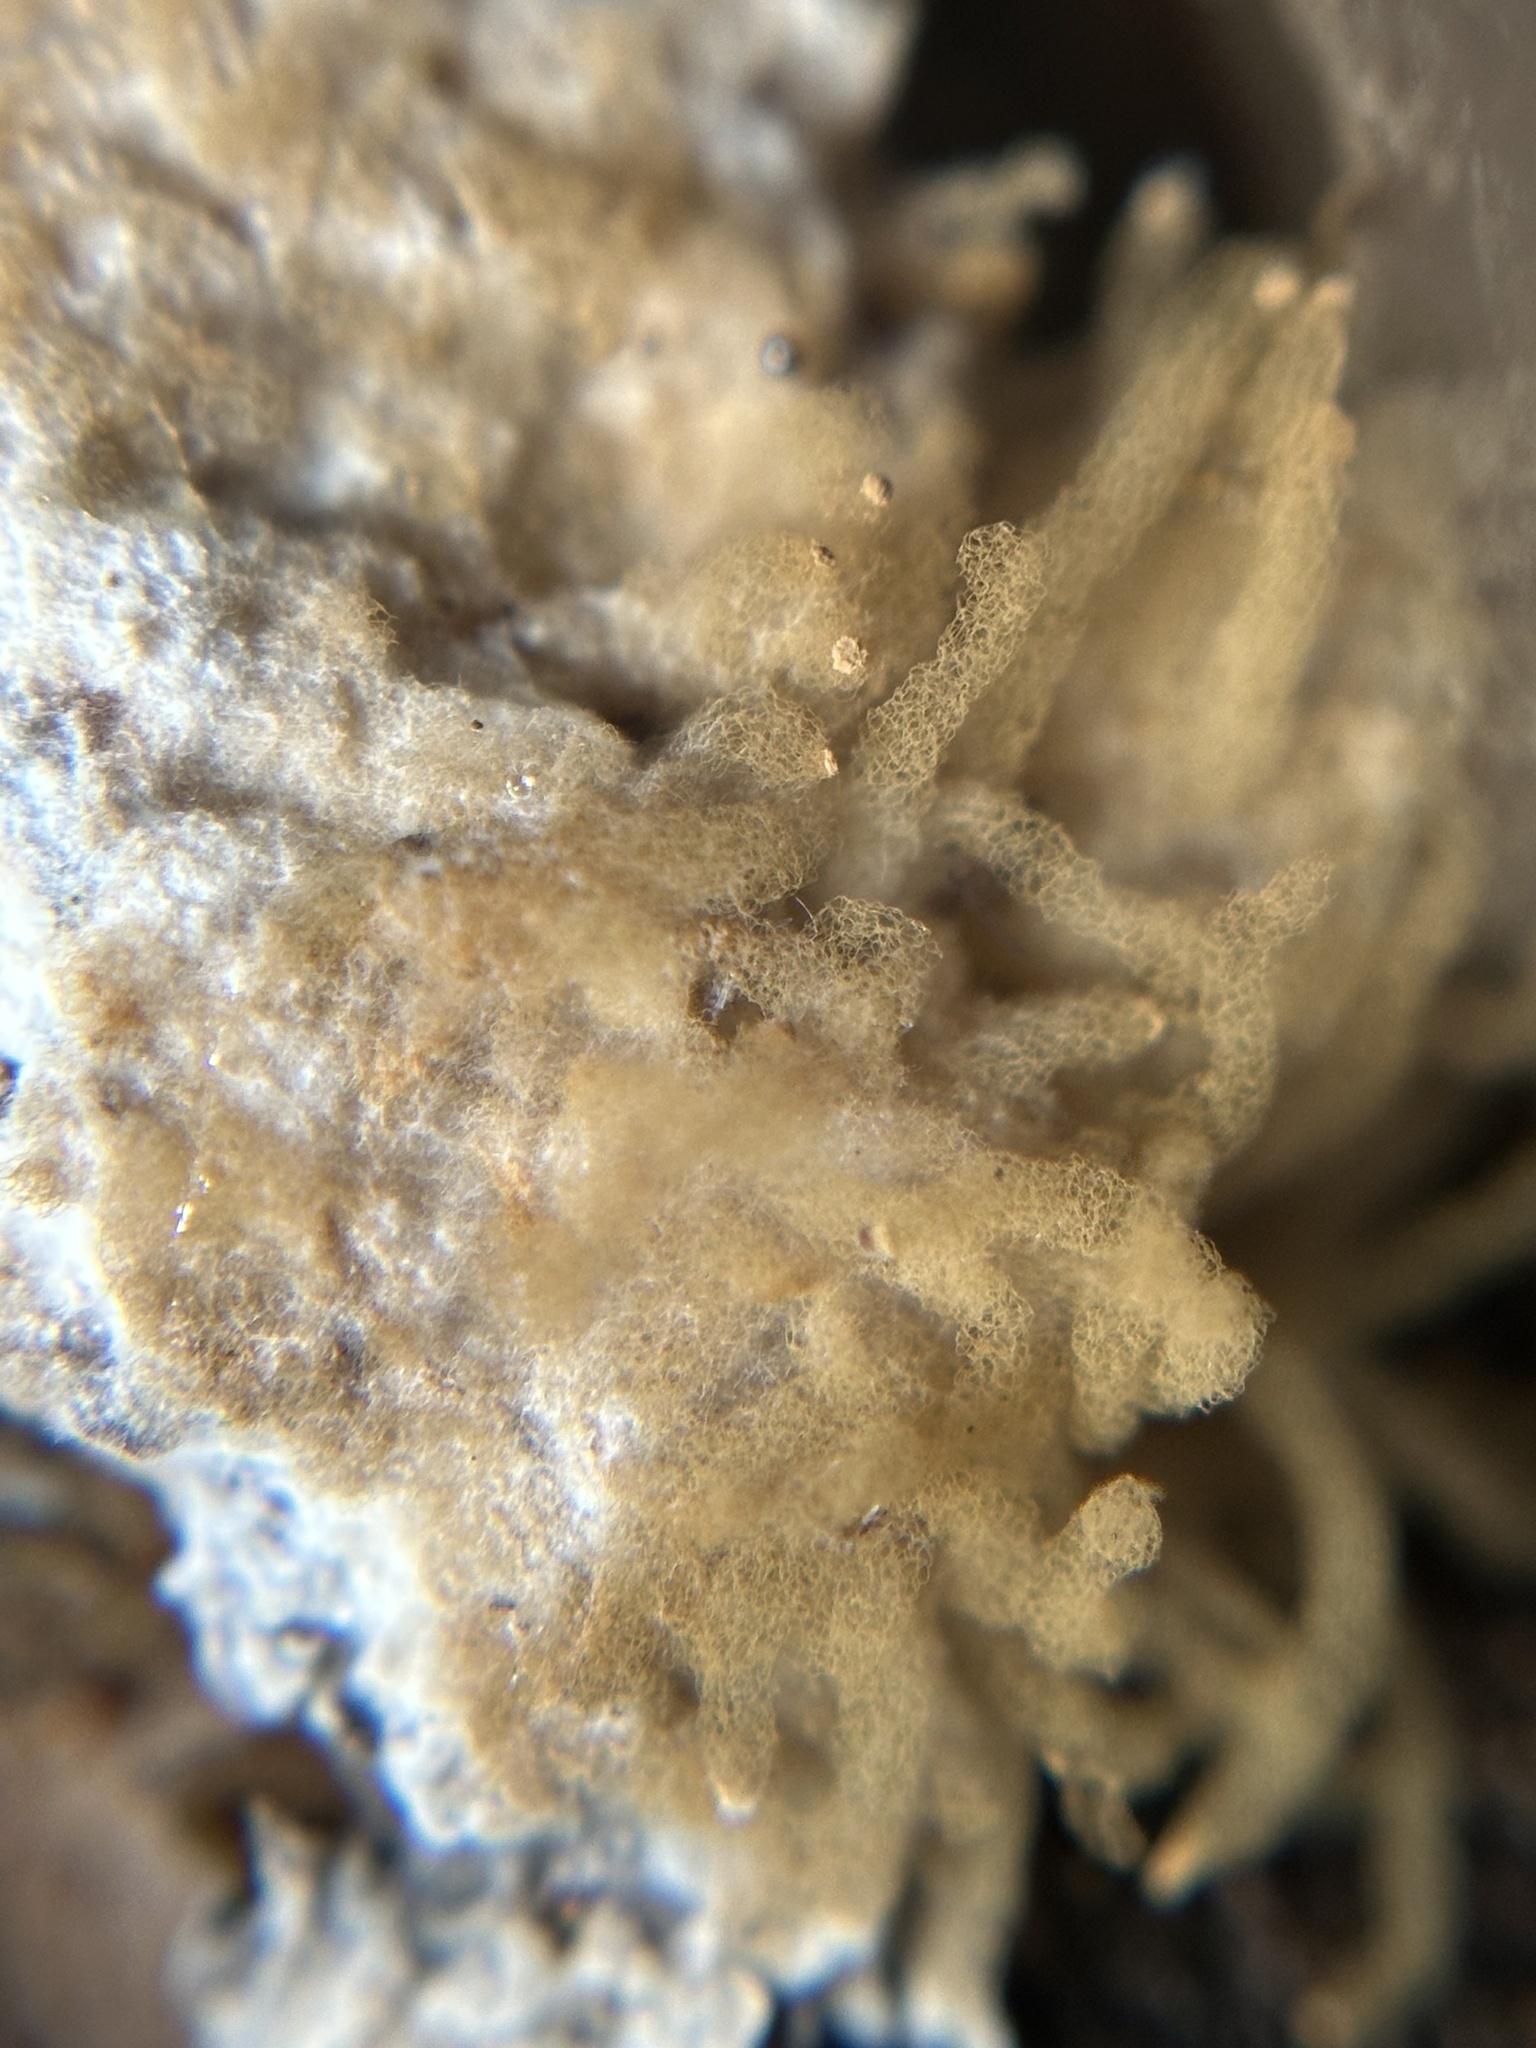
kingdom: Protozoa
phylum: Mycetozoa
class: Myxomycetes
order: Trichiales
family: Arcyriaceae
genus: Arcyria
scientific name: Arcyria obvelata
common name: Yellow carnival candy slime
